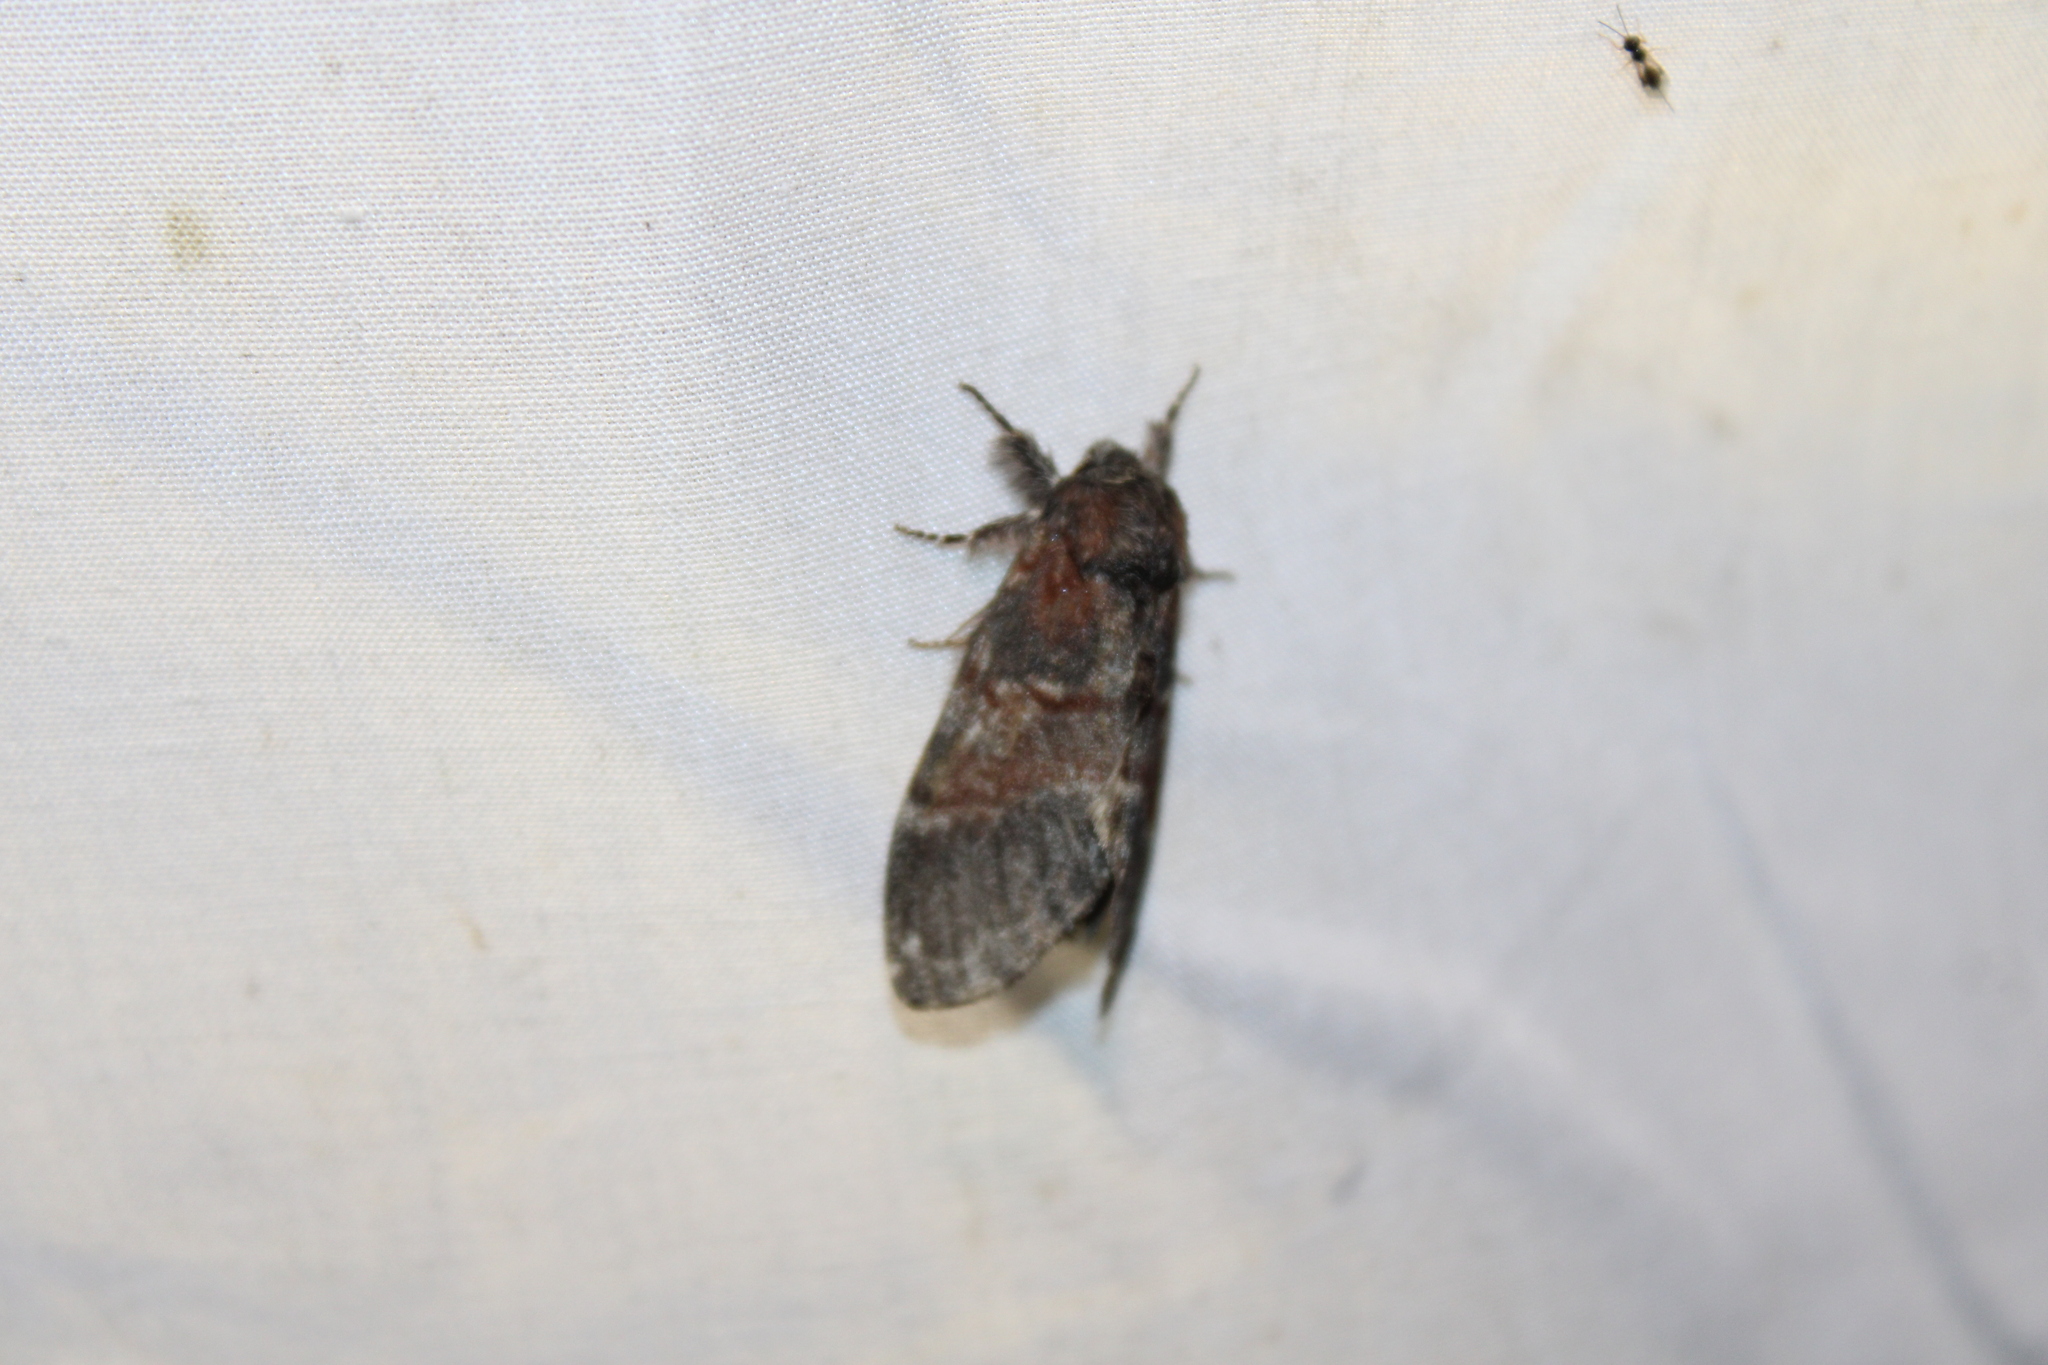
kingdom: Animalia
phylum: Arthropoda
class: Insecta
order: Lepidoptera
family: Notodontidae
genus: Peridea
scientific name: Peridea ferruginea
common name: Chocolate prominent
